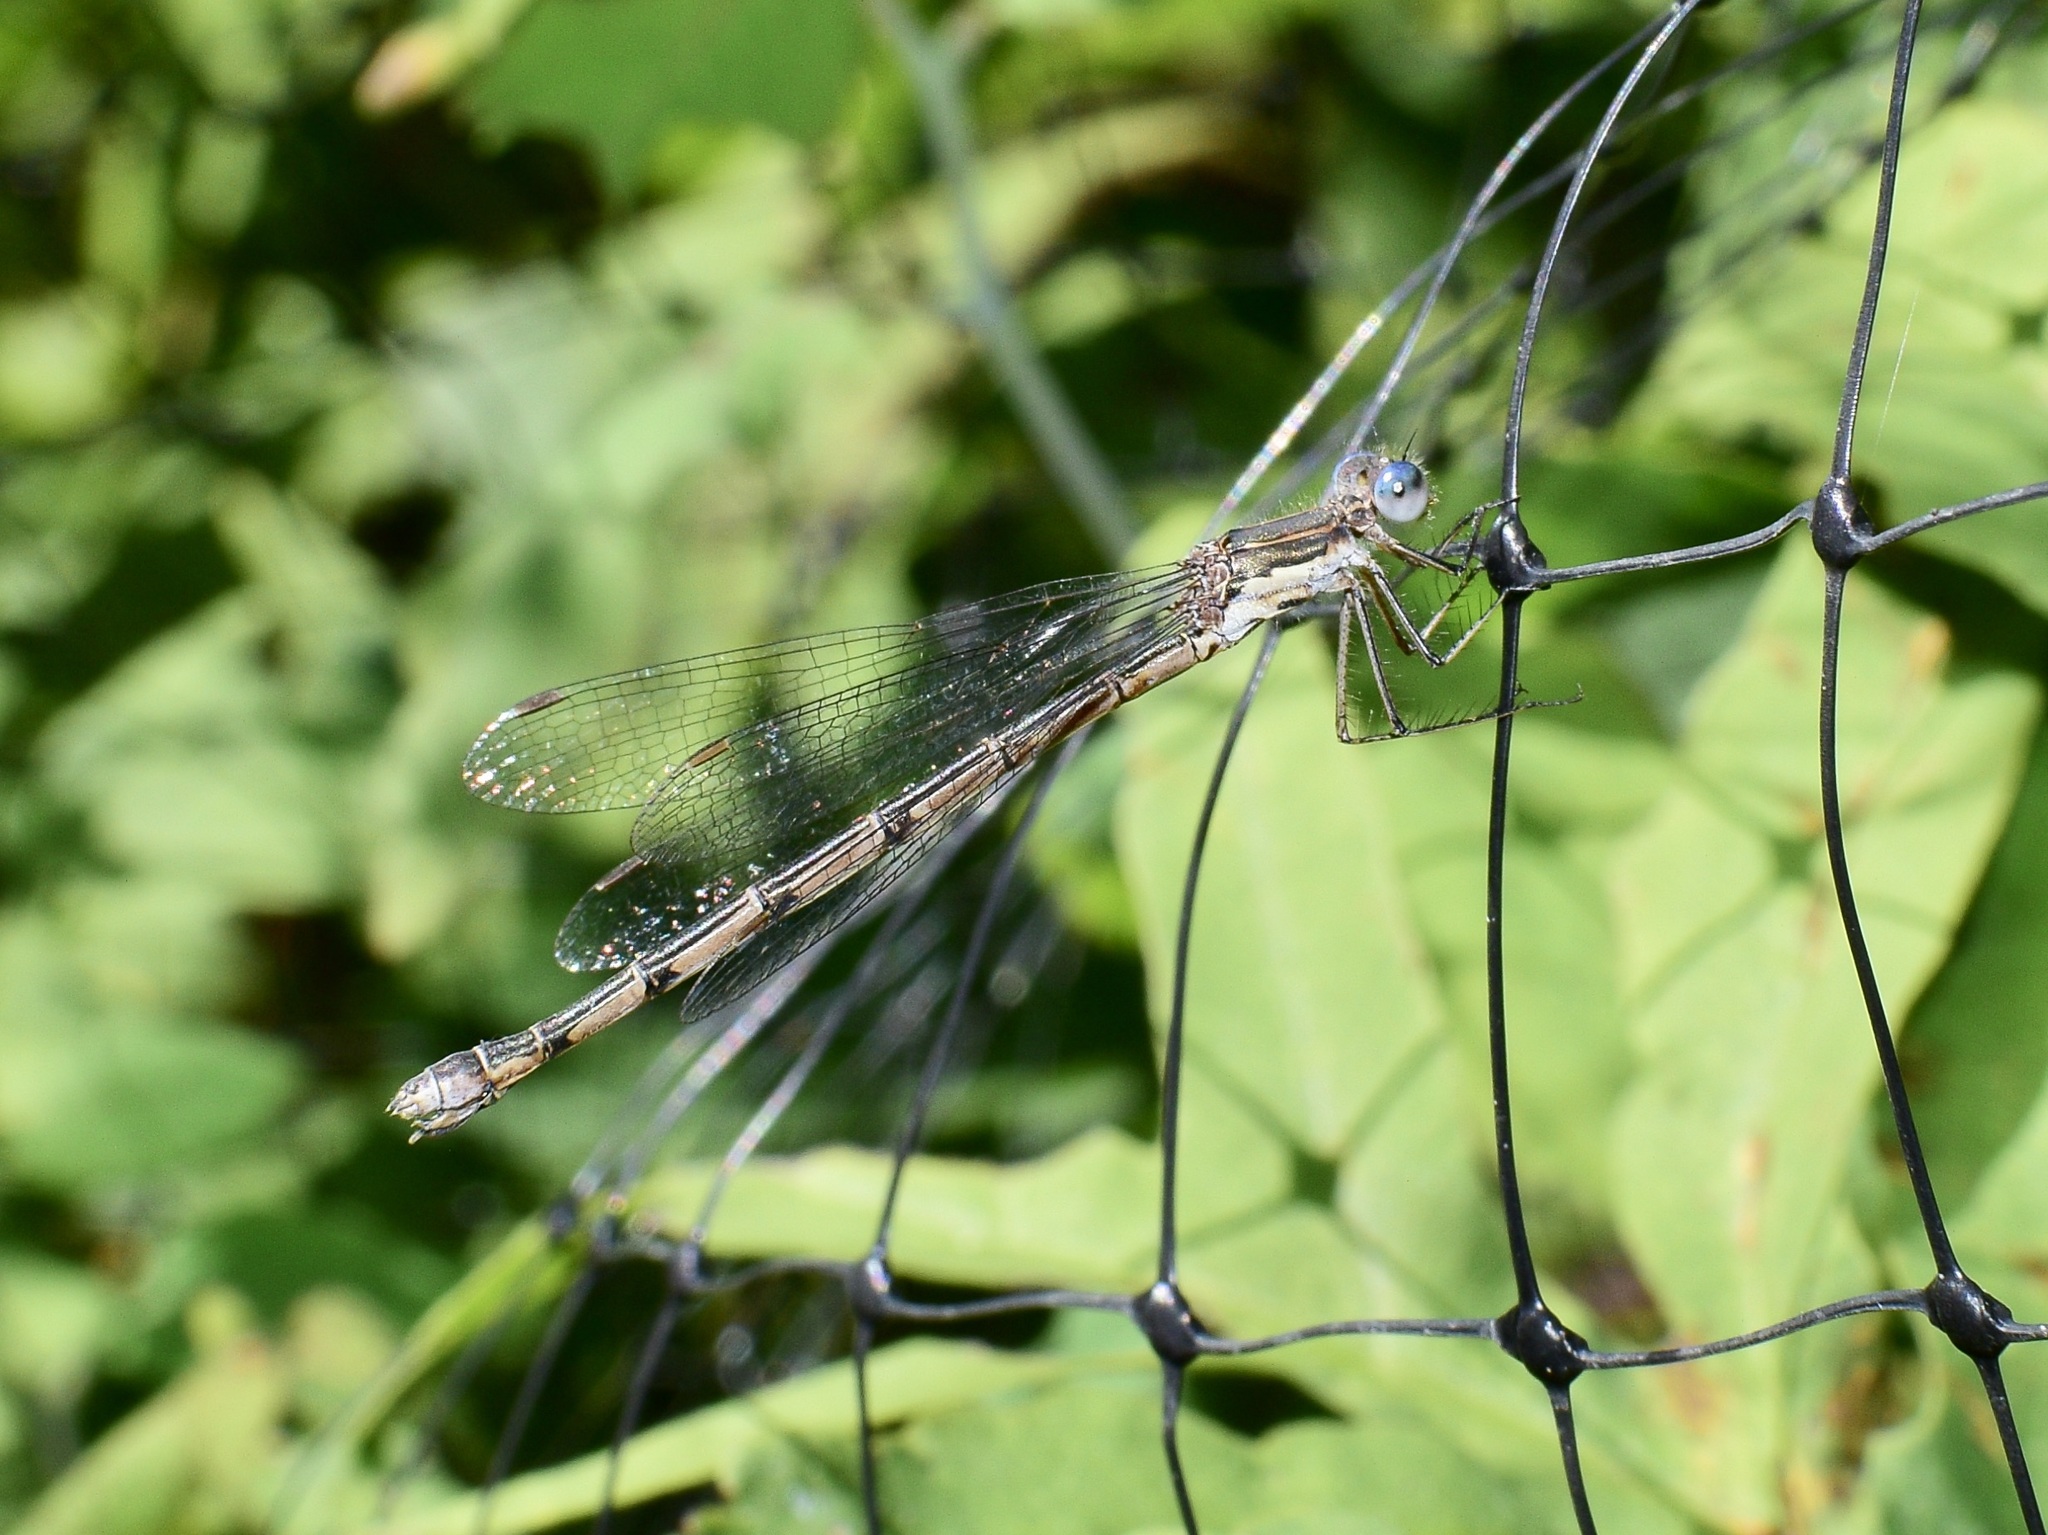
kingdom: Animalia
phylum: Arthropoda
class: Insecta
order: Odonata
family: Lestidae
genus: Lestes
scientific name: Lestes congener
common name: Spotted spreadwing
